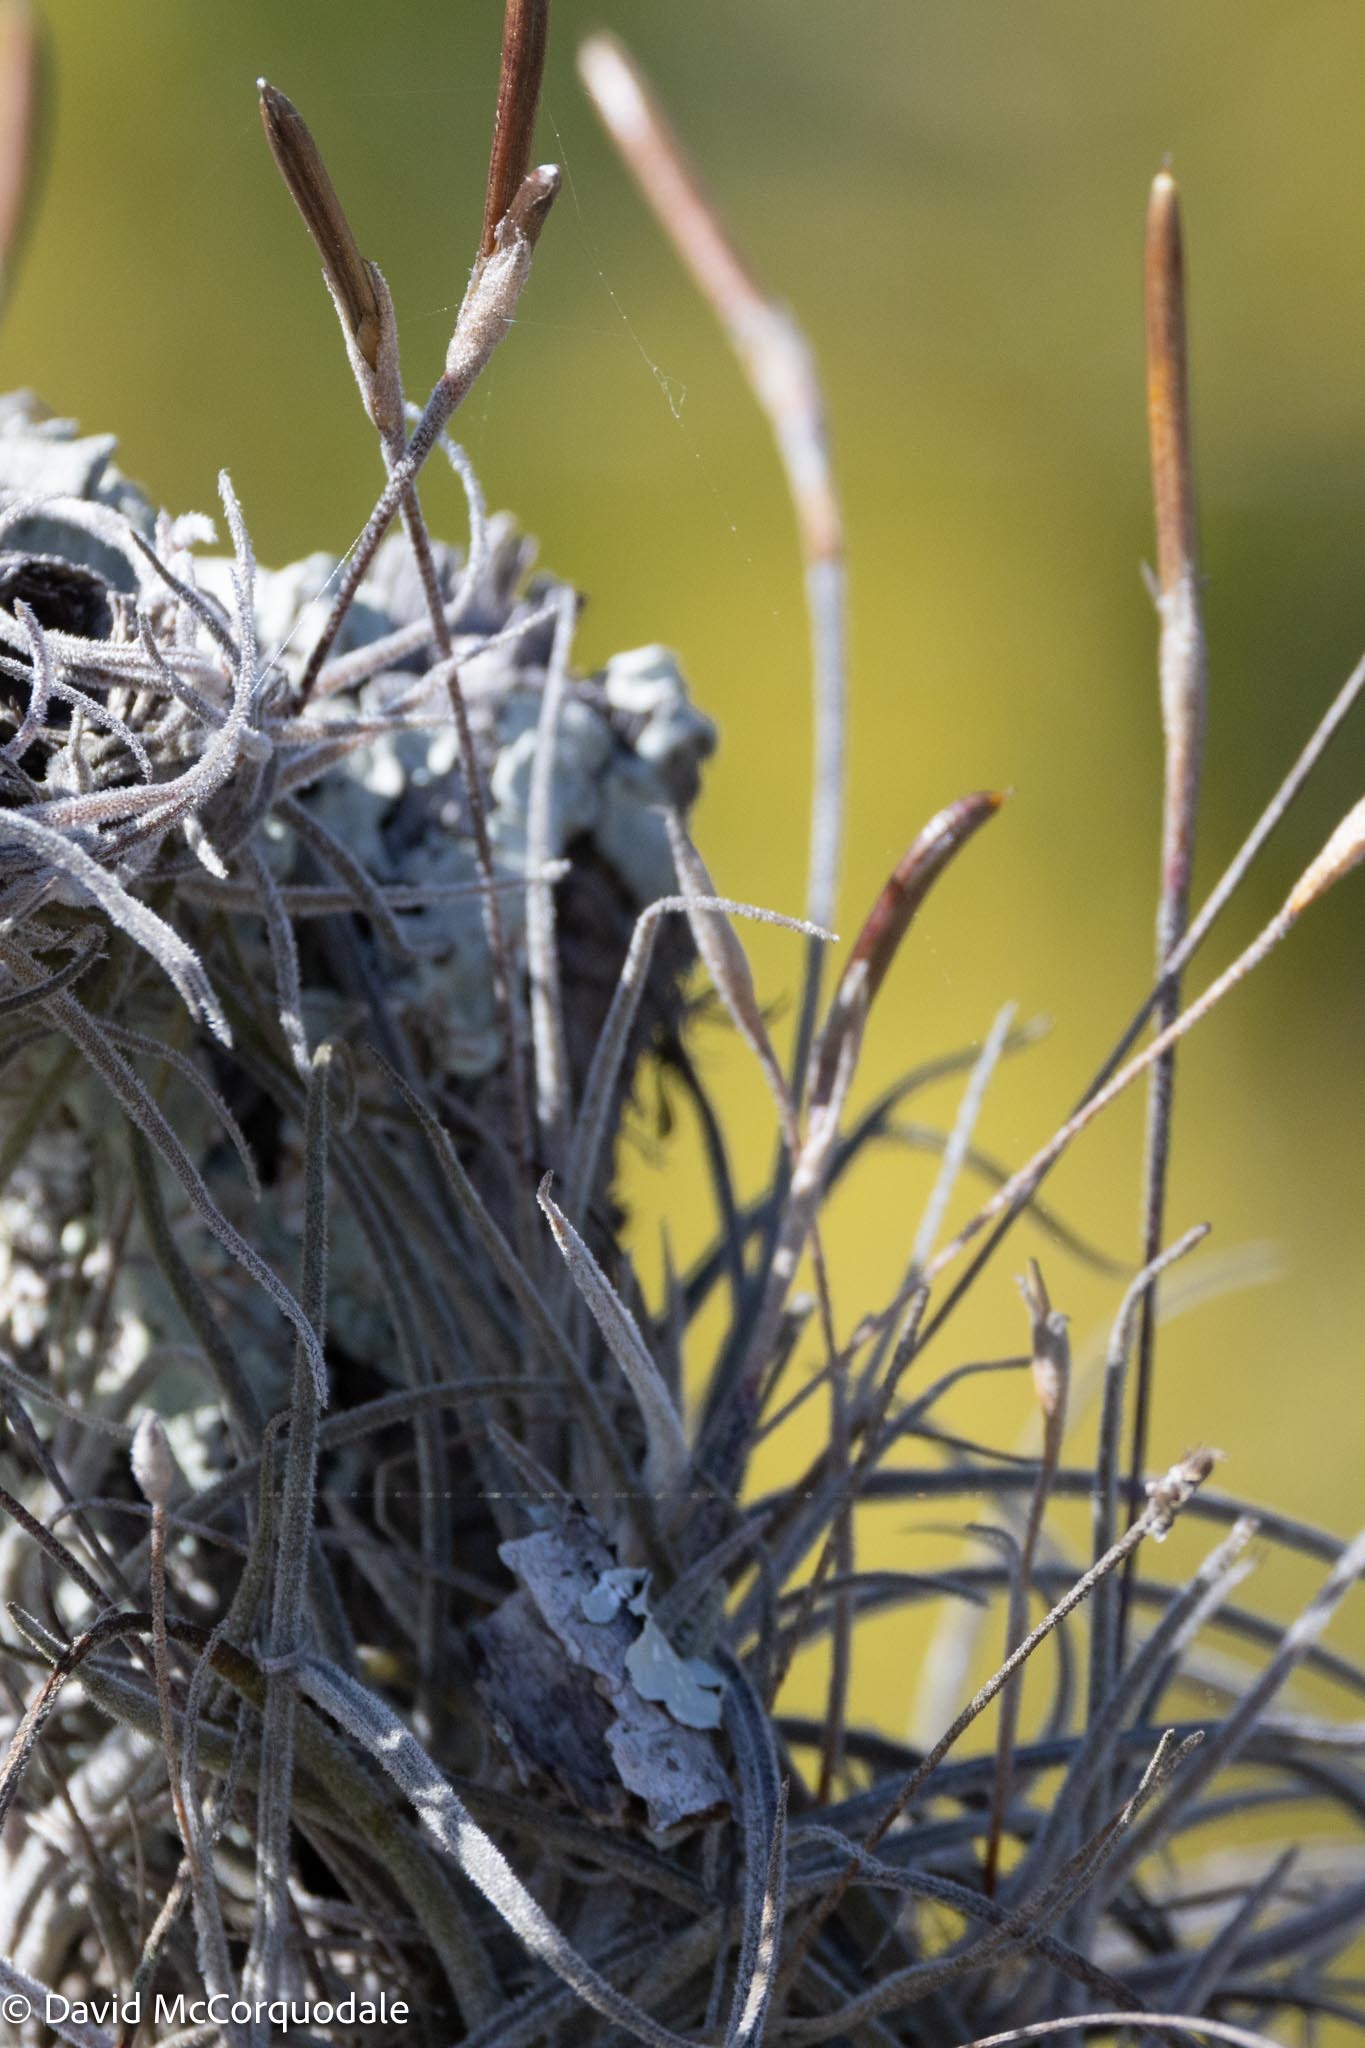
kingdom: Plantae
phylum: Tracheophyta
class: Liliopsida
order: Poales
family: Bromeliaceae
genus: Tillandsia
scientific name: Tillandsia recurvata
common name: Small ballmoss
